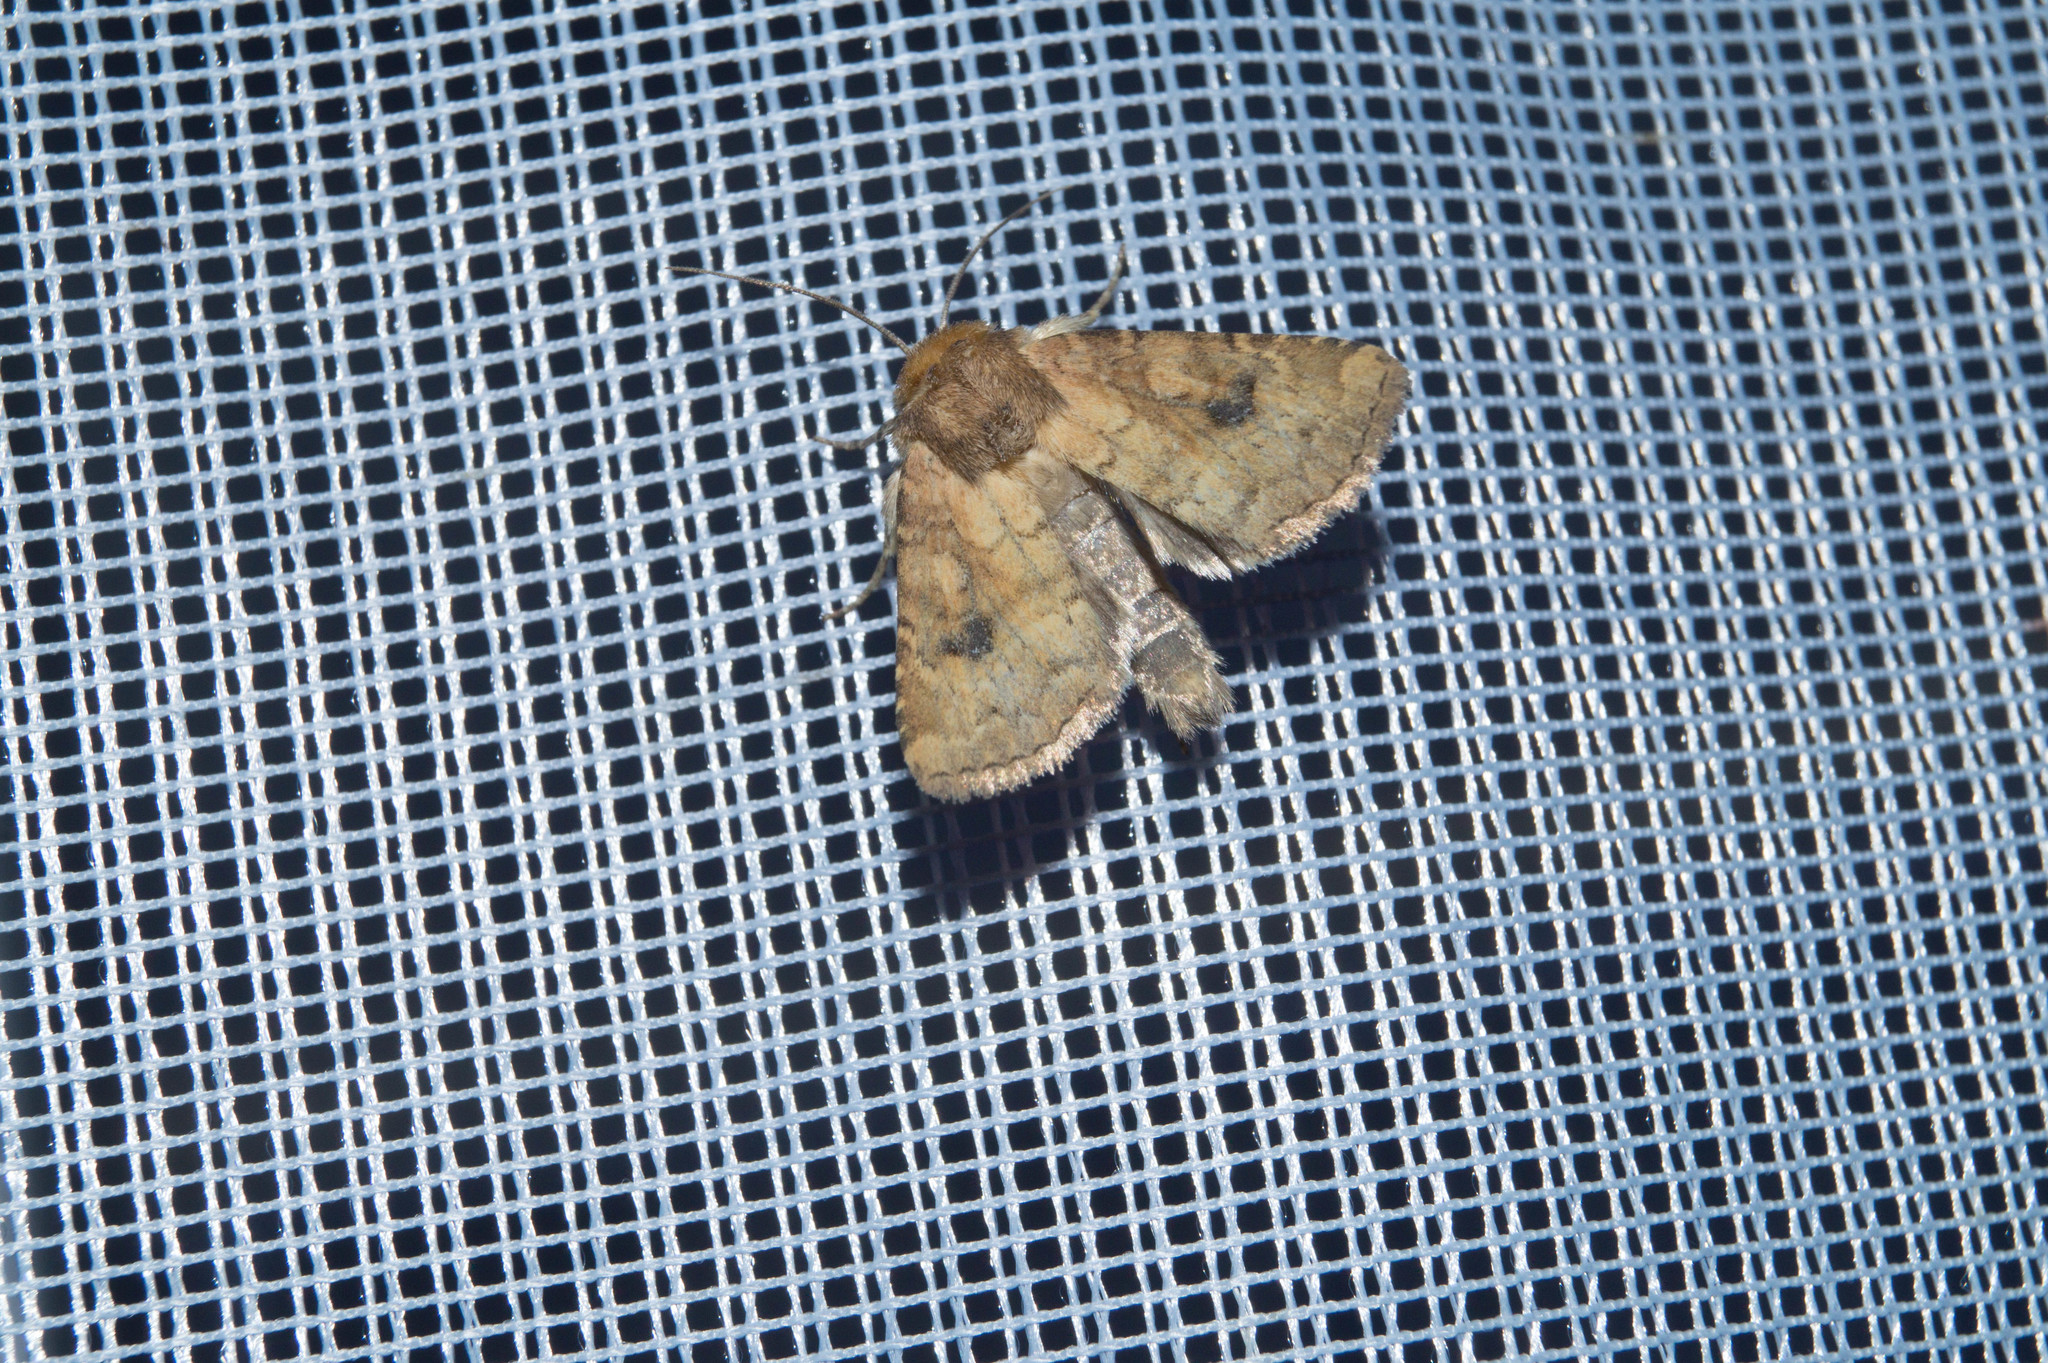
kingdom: Animalia
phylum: Arthropoda
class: Insecta
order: Lepidoptera
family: Noctuidae
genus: Atypha
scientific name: Atypha pulmonaris
